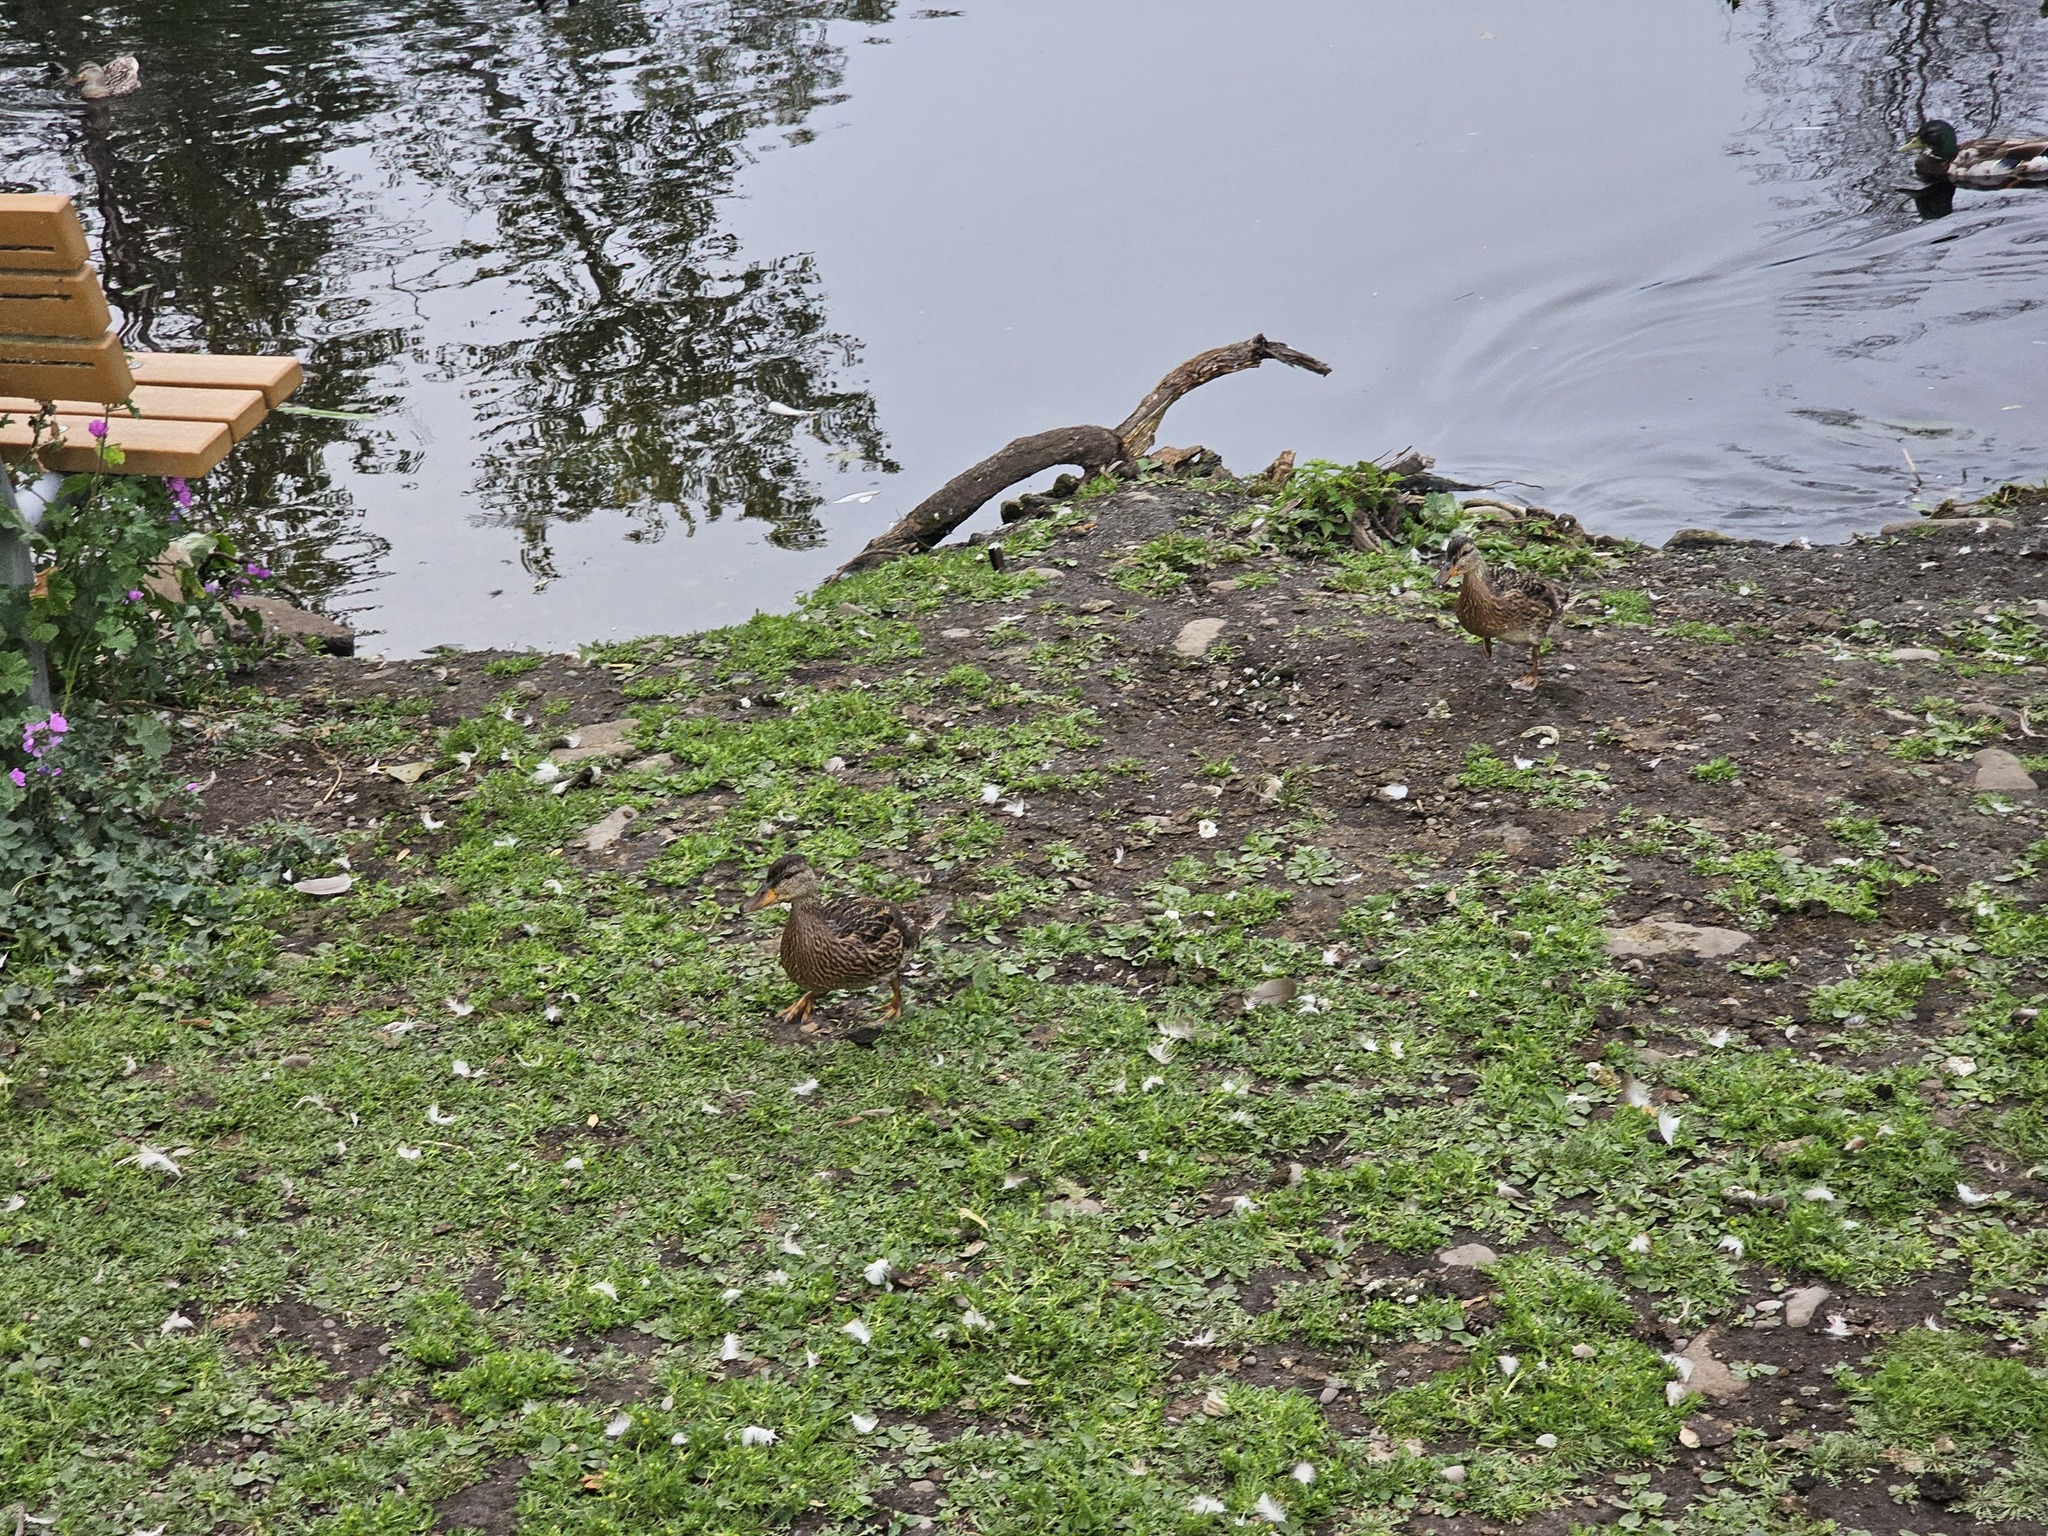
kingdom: Animalia
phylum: Chordata
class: Aves
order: Anseriformes
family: Anatidae
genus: Anas
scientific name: Anas platyrhynchos
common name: Mallard
